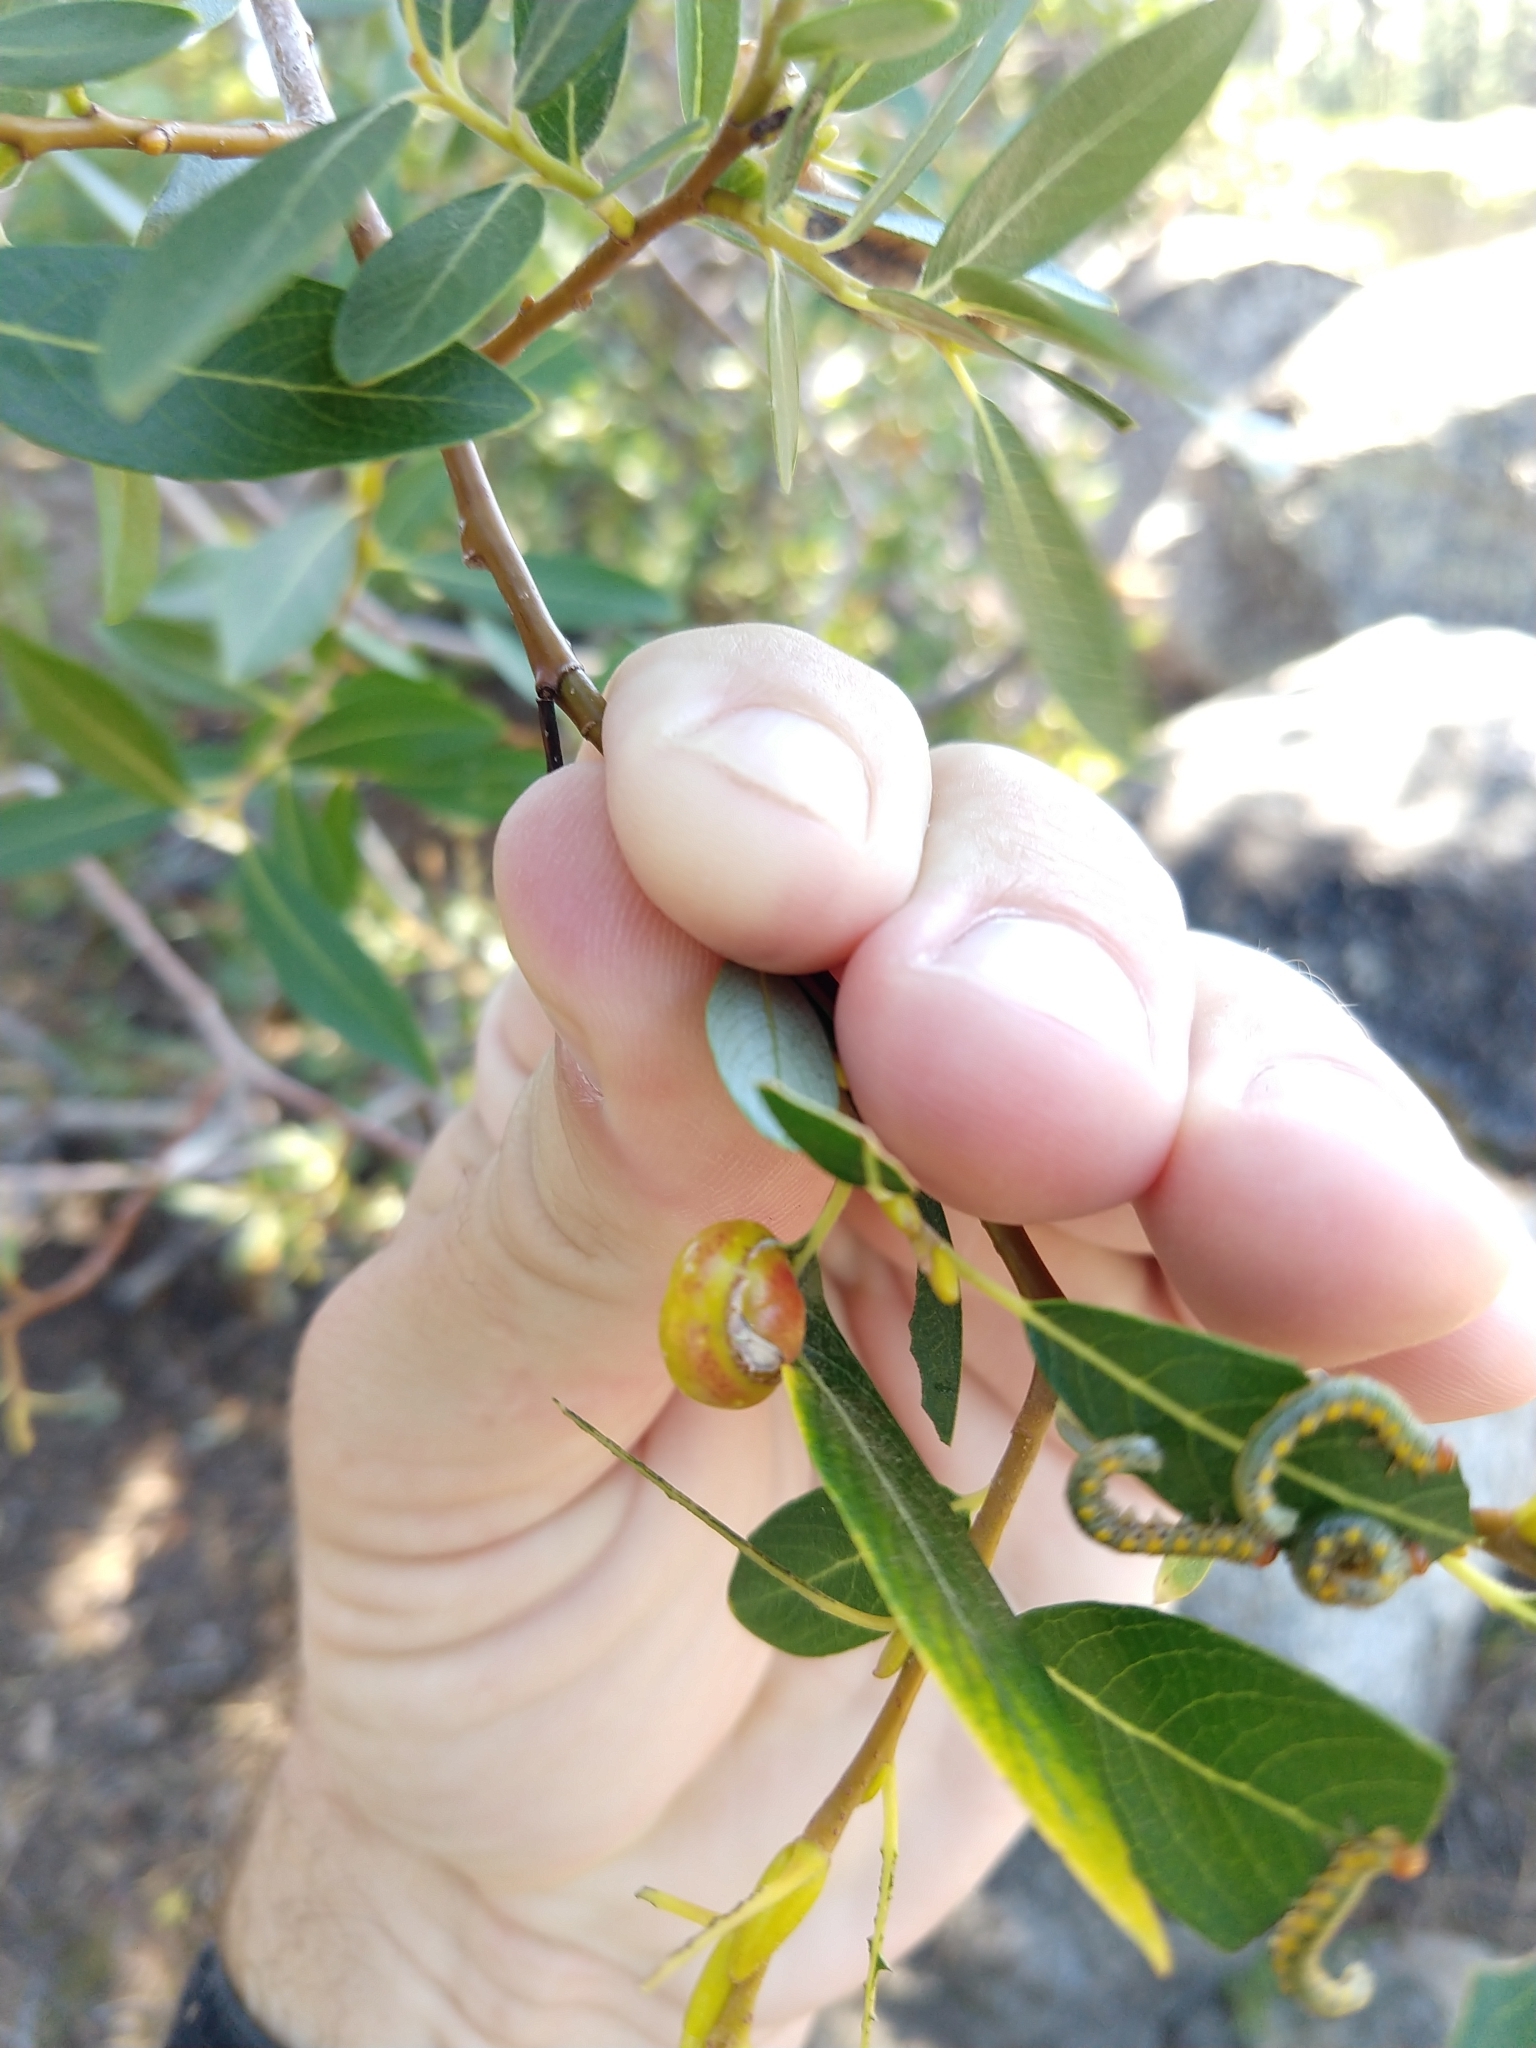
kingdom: Animalia
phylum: Arthropoda
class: Insecta
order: Hymenoptera
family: Tenthredinidae
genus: Euura
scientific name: Euura
